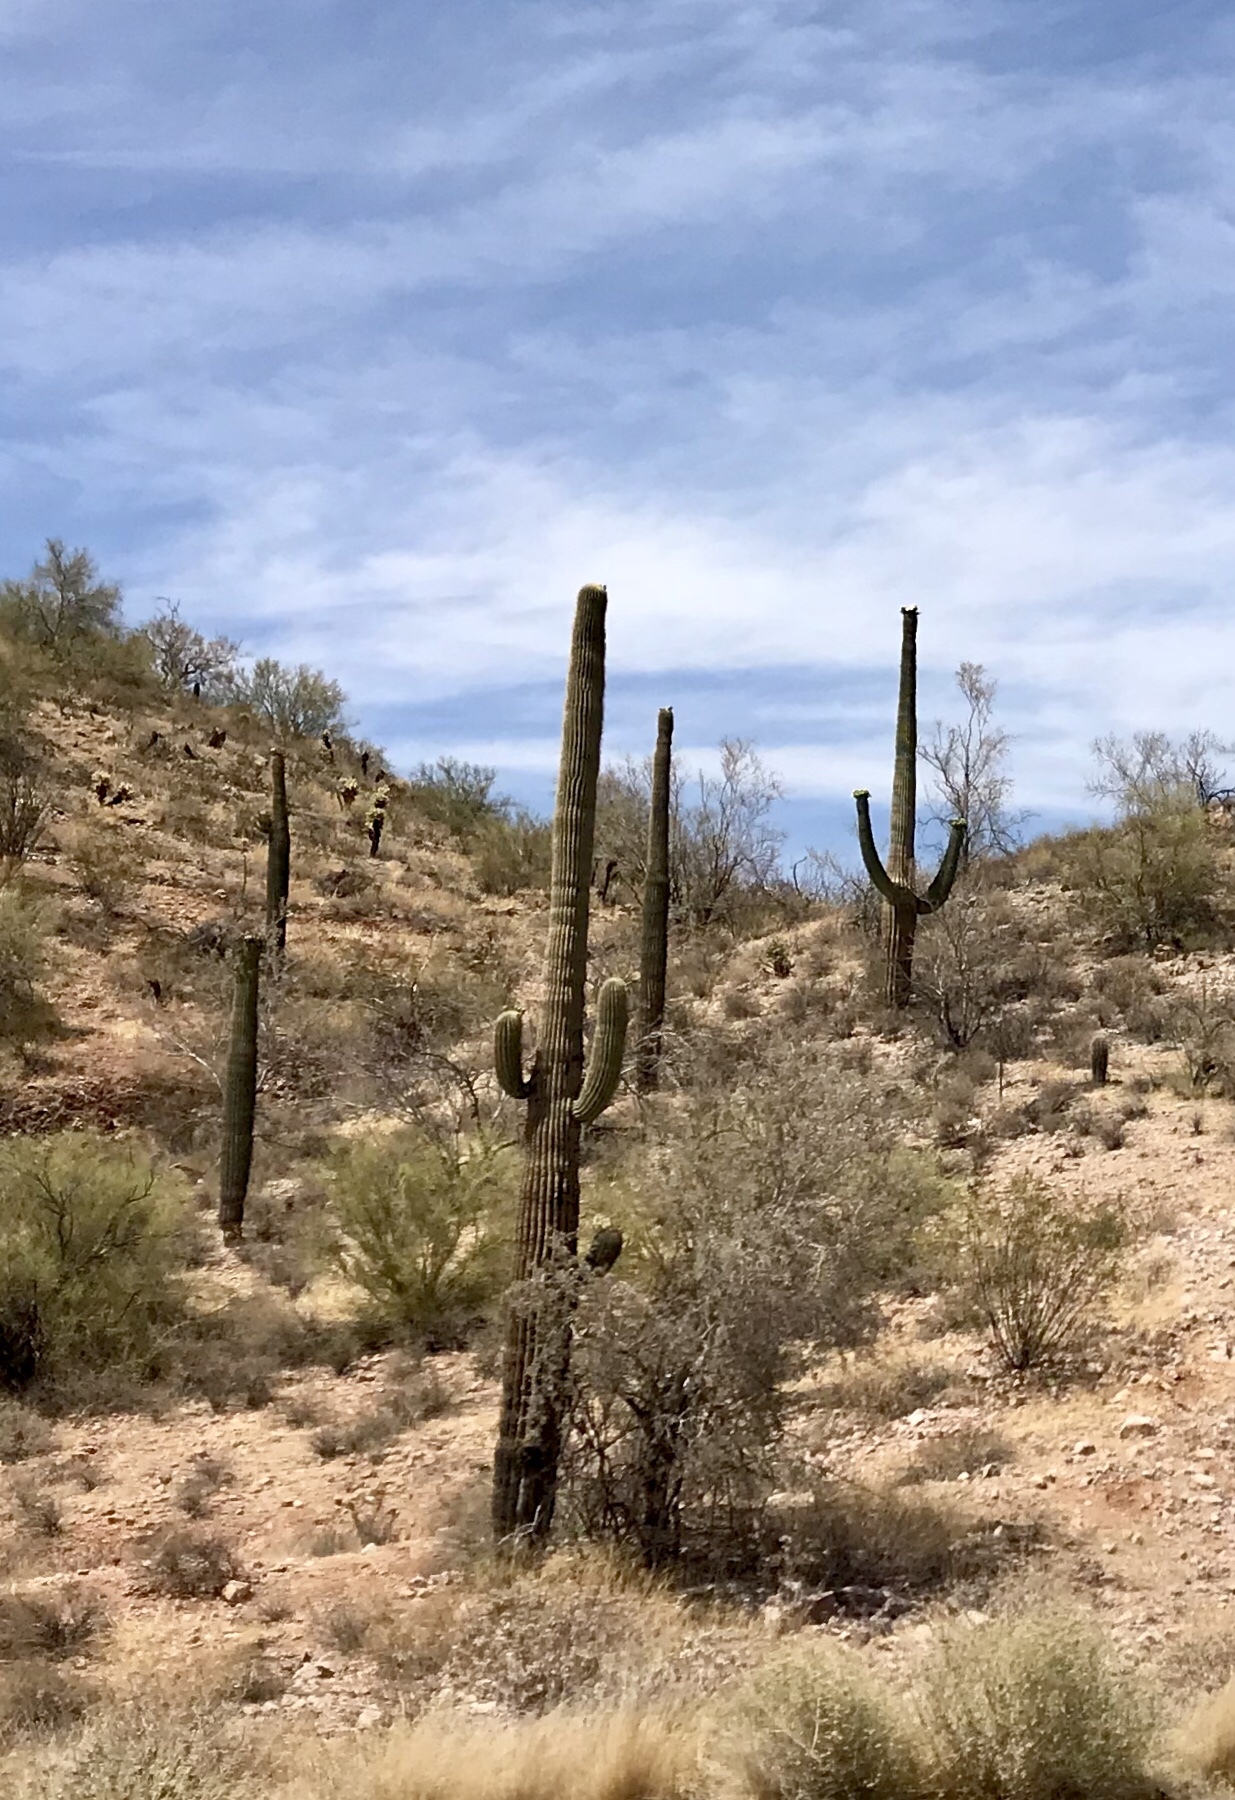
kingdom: Plantae
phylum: Tracheophyta
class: Magnoliopsida
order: Caryophyllales
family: Cactaceae
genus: Carnegiea
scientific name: Carnegiea gigantea
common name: Saguaro
